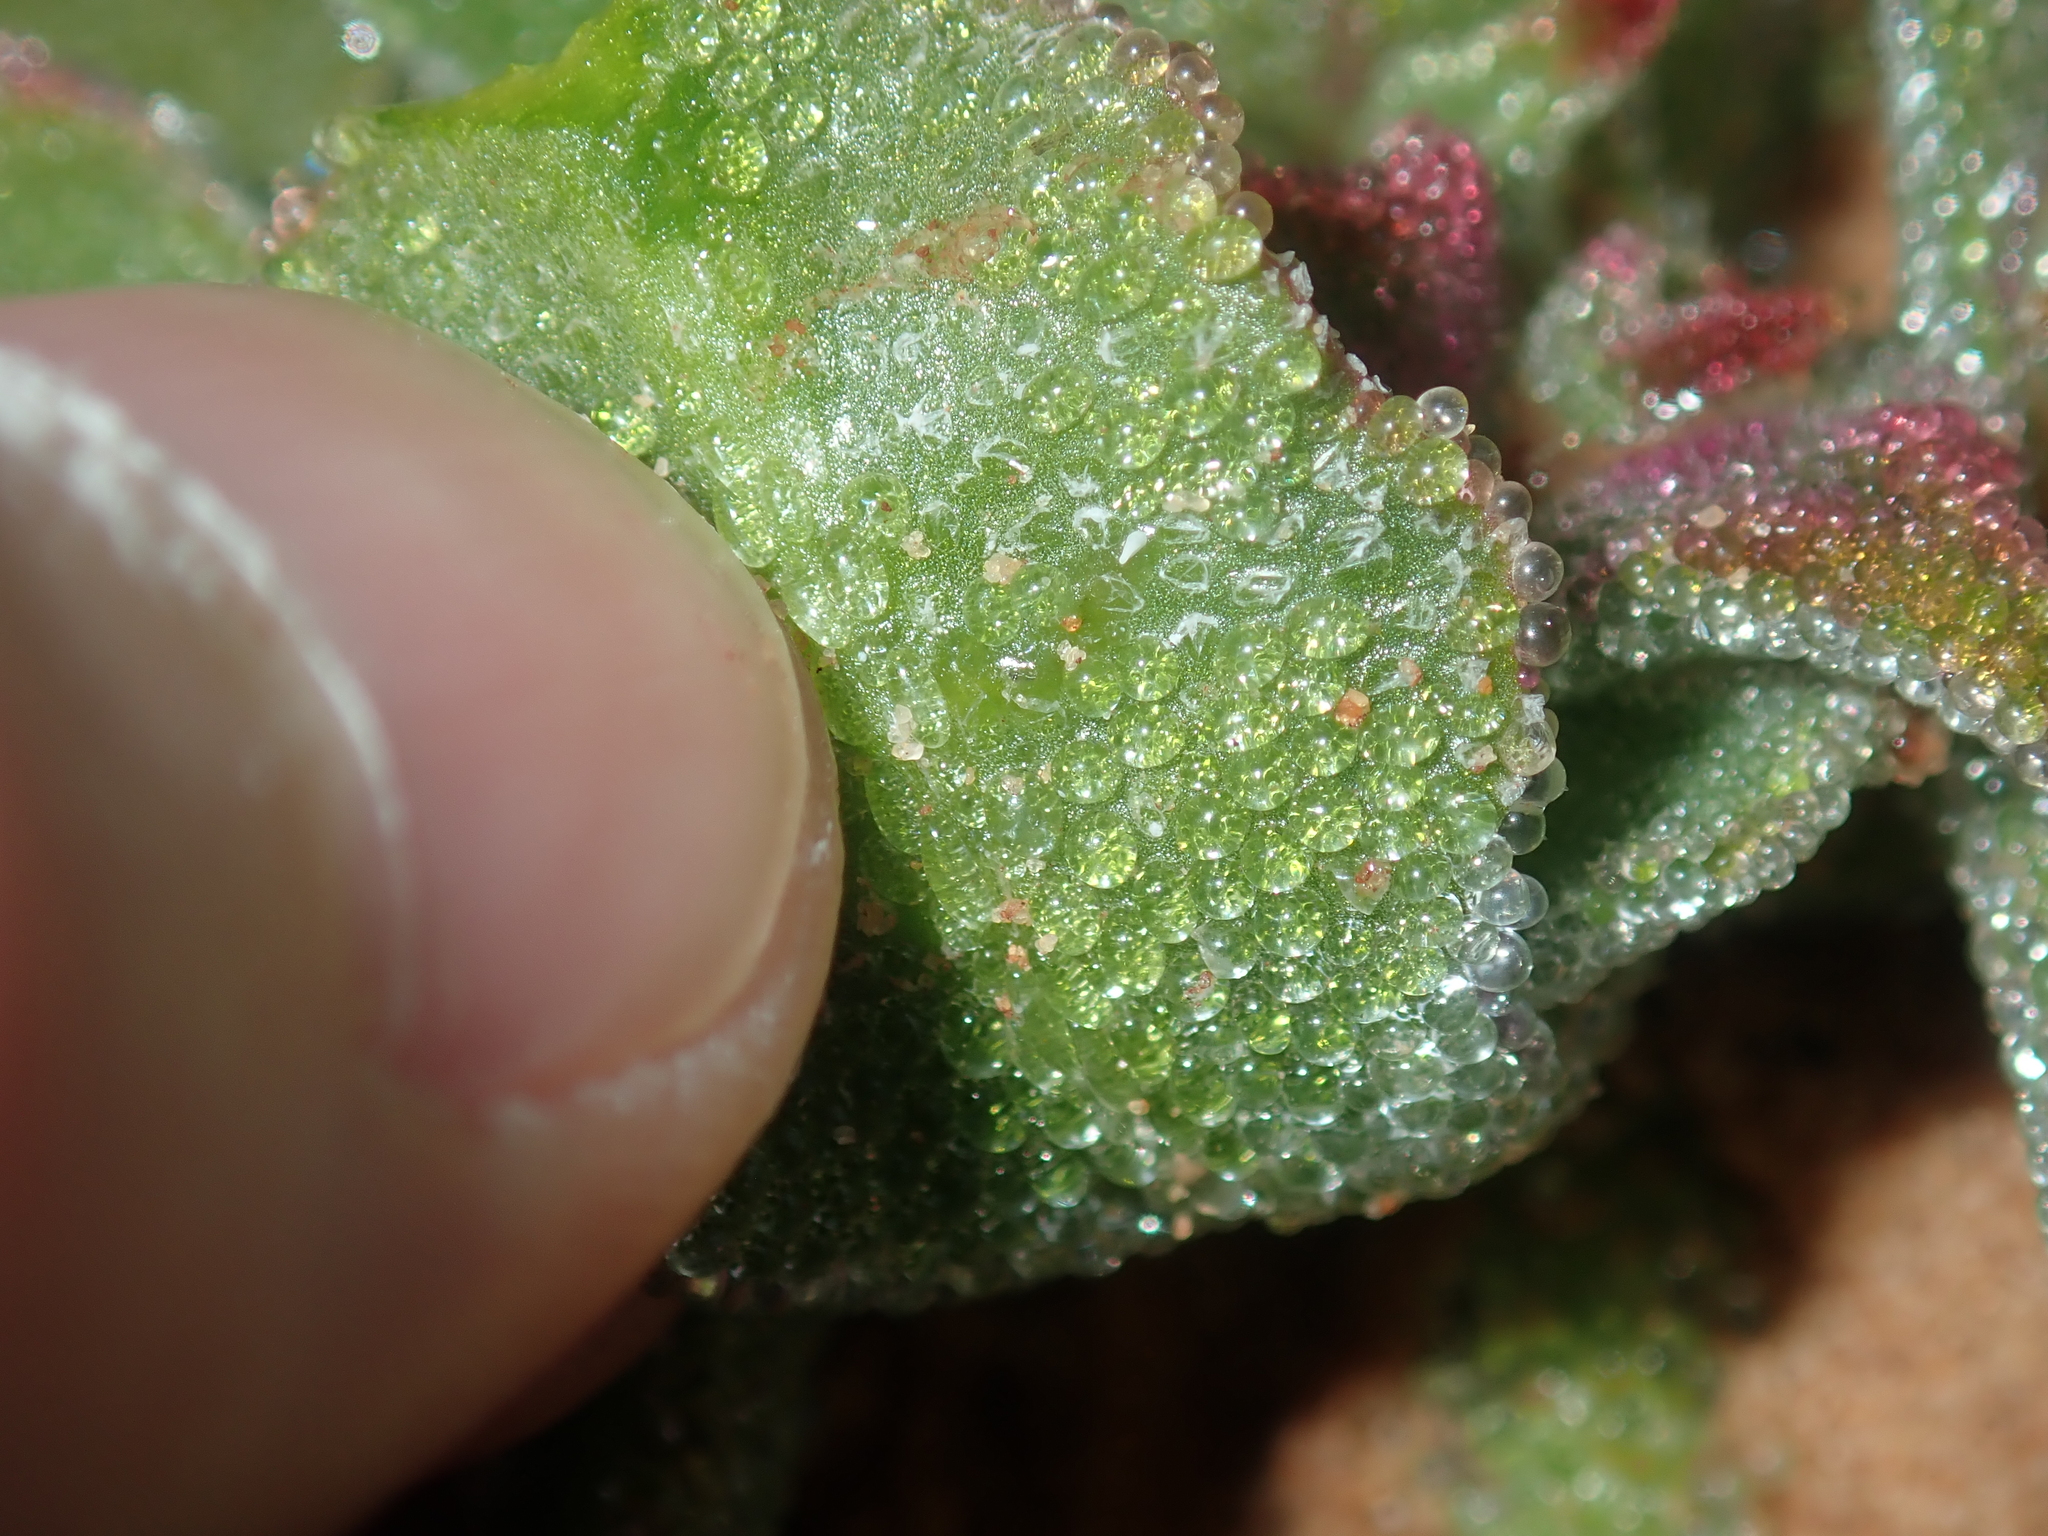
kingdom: Plantae
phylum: Tracheophyta
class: Magnoliopsida
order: Caryophyllales
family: Aizoaceae
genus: Mesembryanthemum
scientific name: Mesembryanthemum crystallinum
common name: Common iceplant
